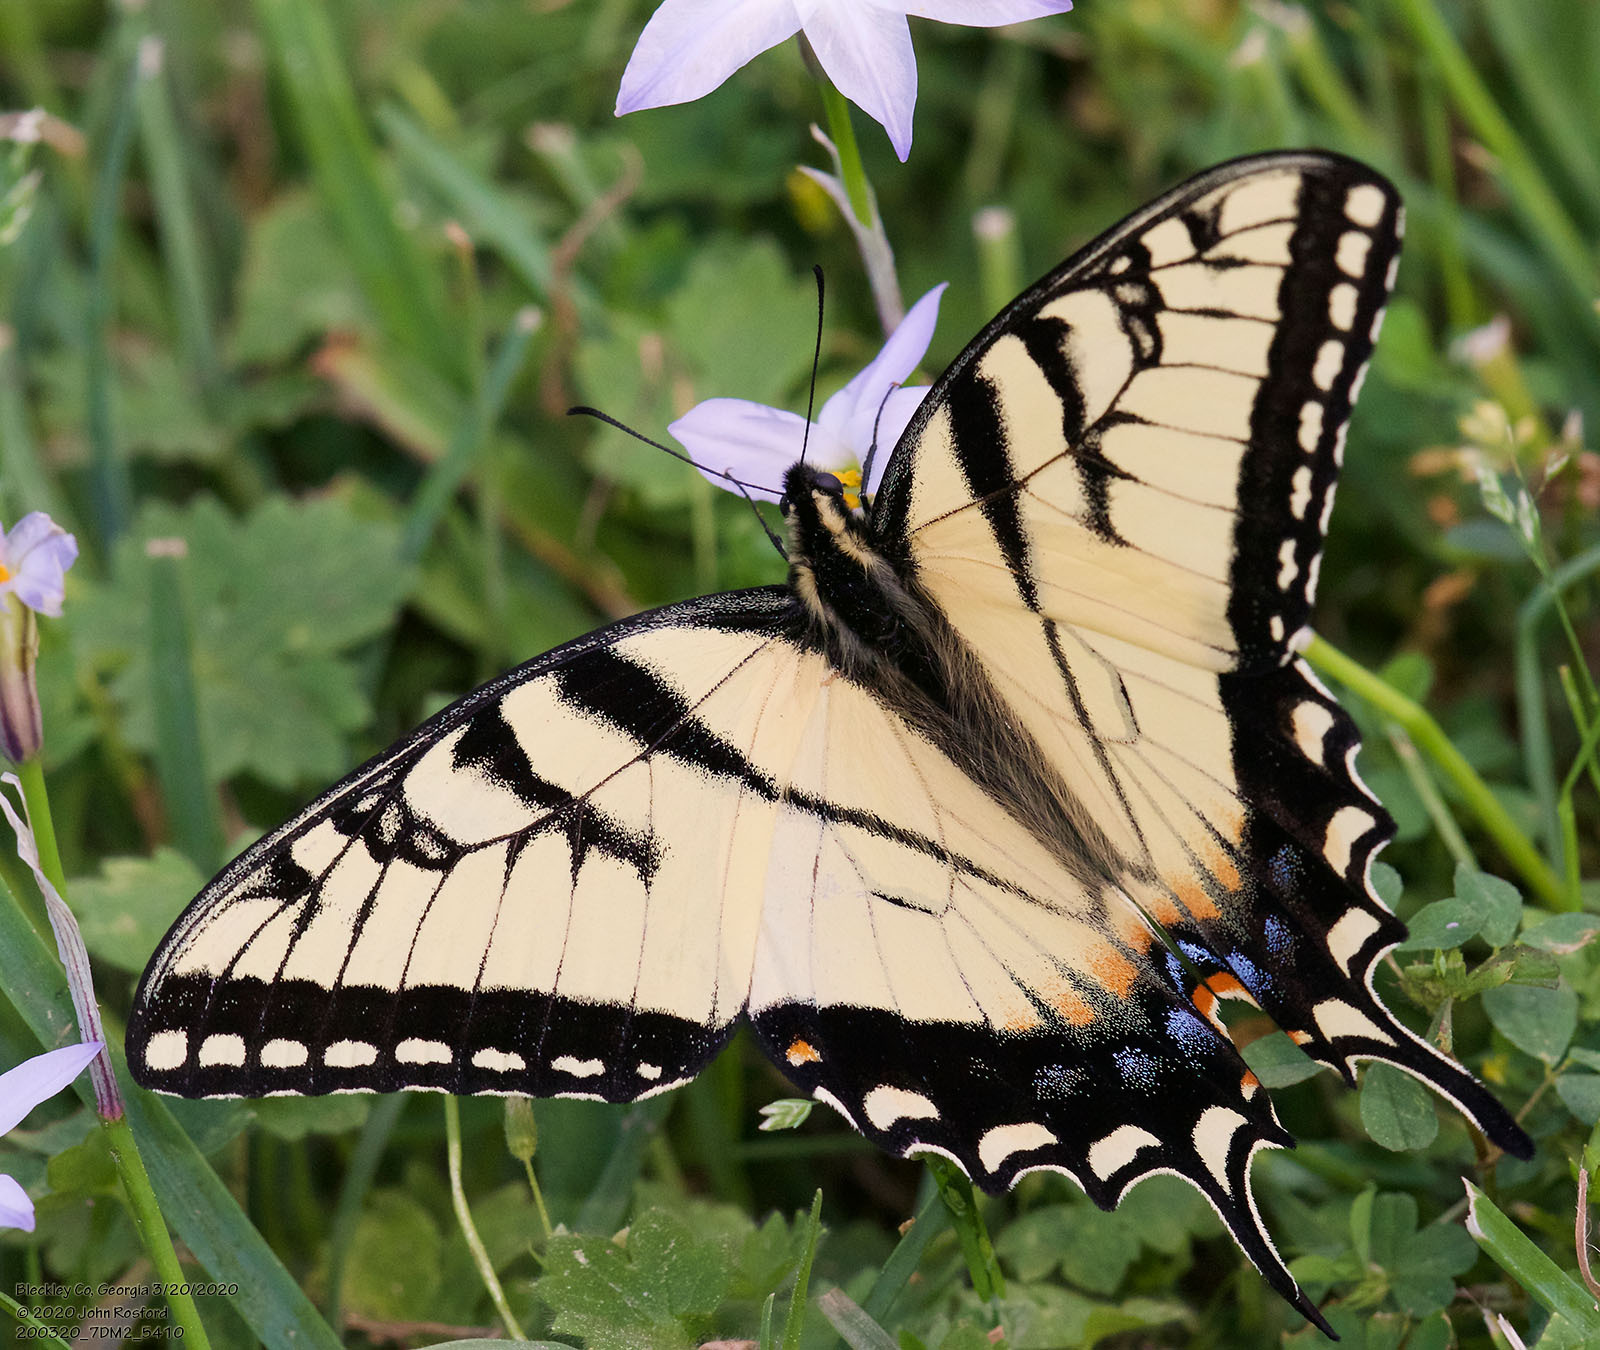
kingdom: Animalia
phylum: Arthropoda
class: Insecta
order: Lepidoptera
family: Papilionidae
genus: Papilio
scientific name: Papilio glaucus
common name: Tiger swallowtail
